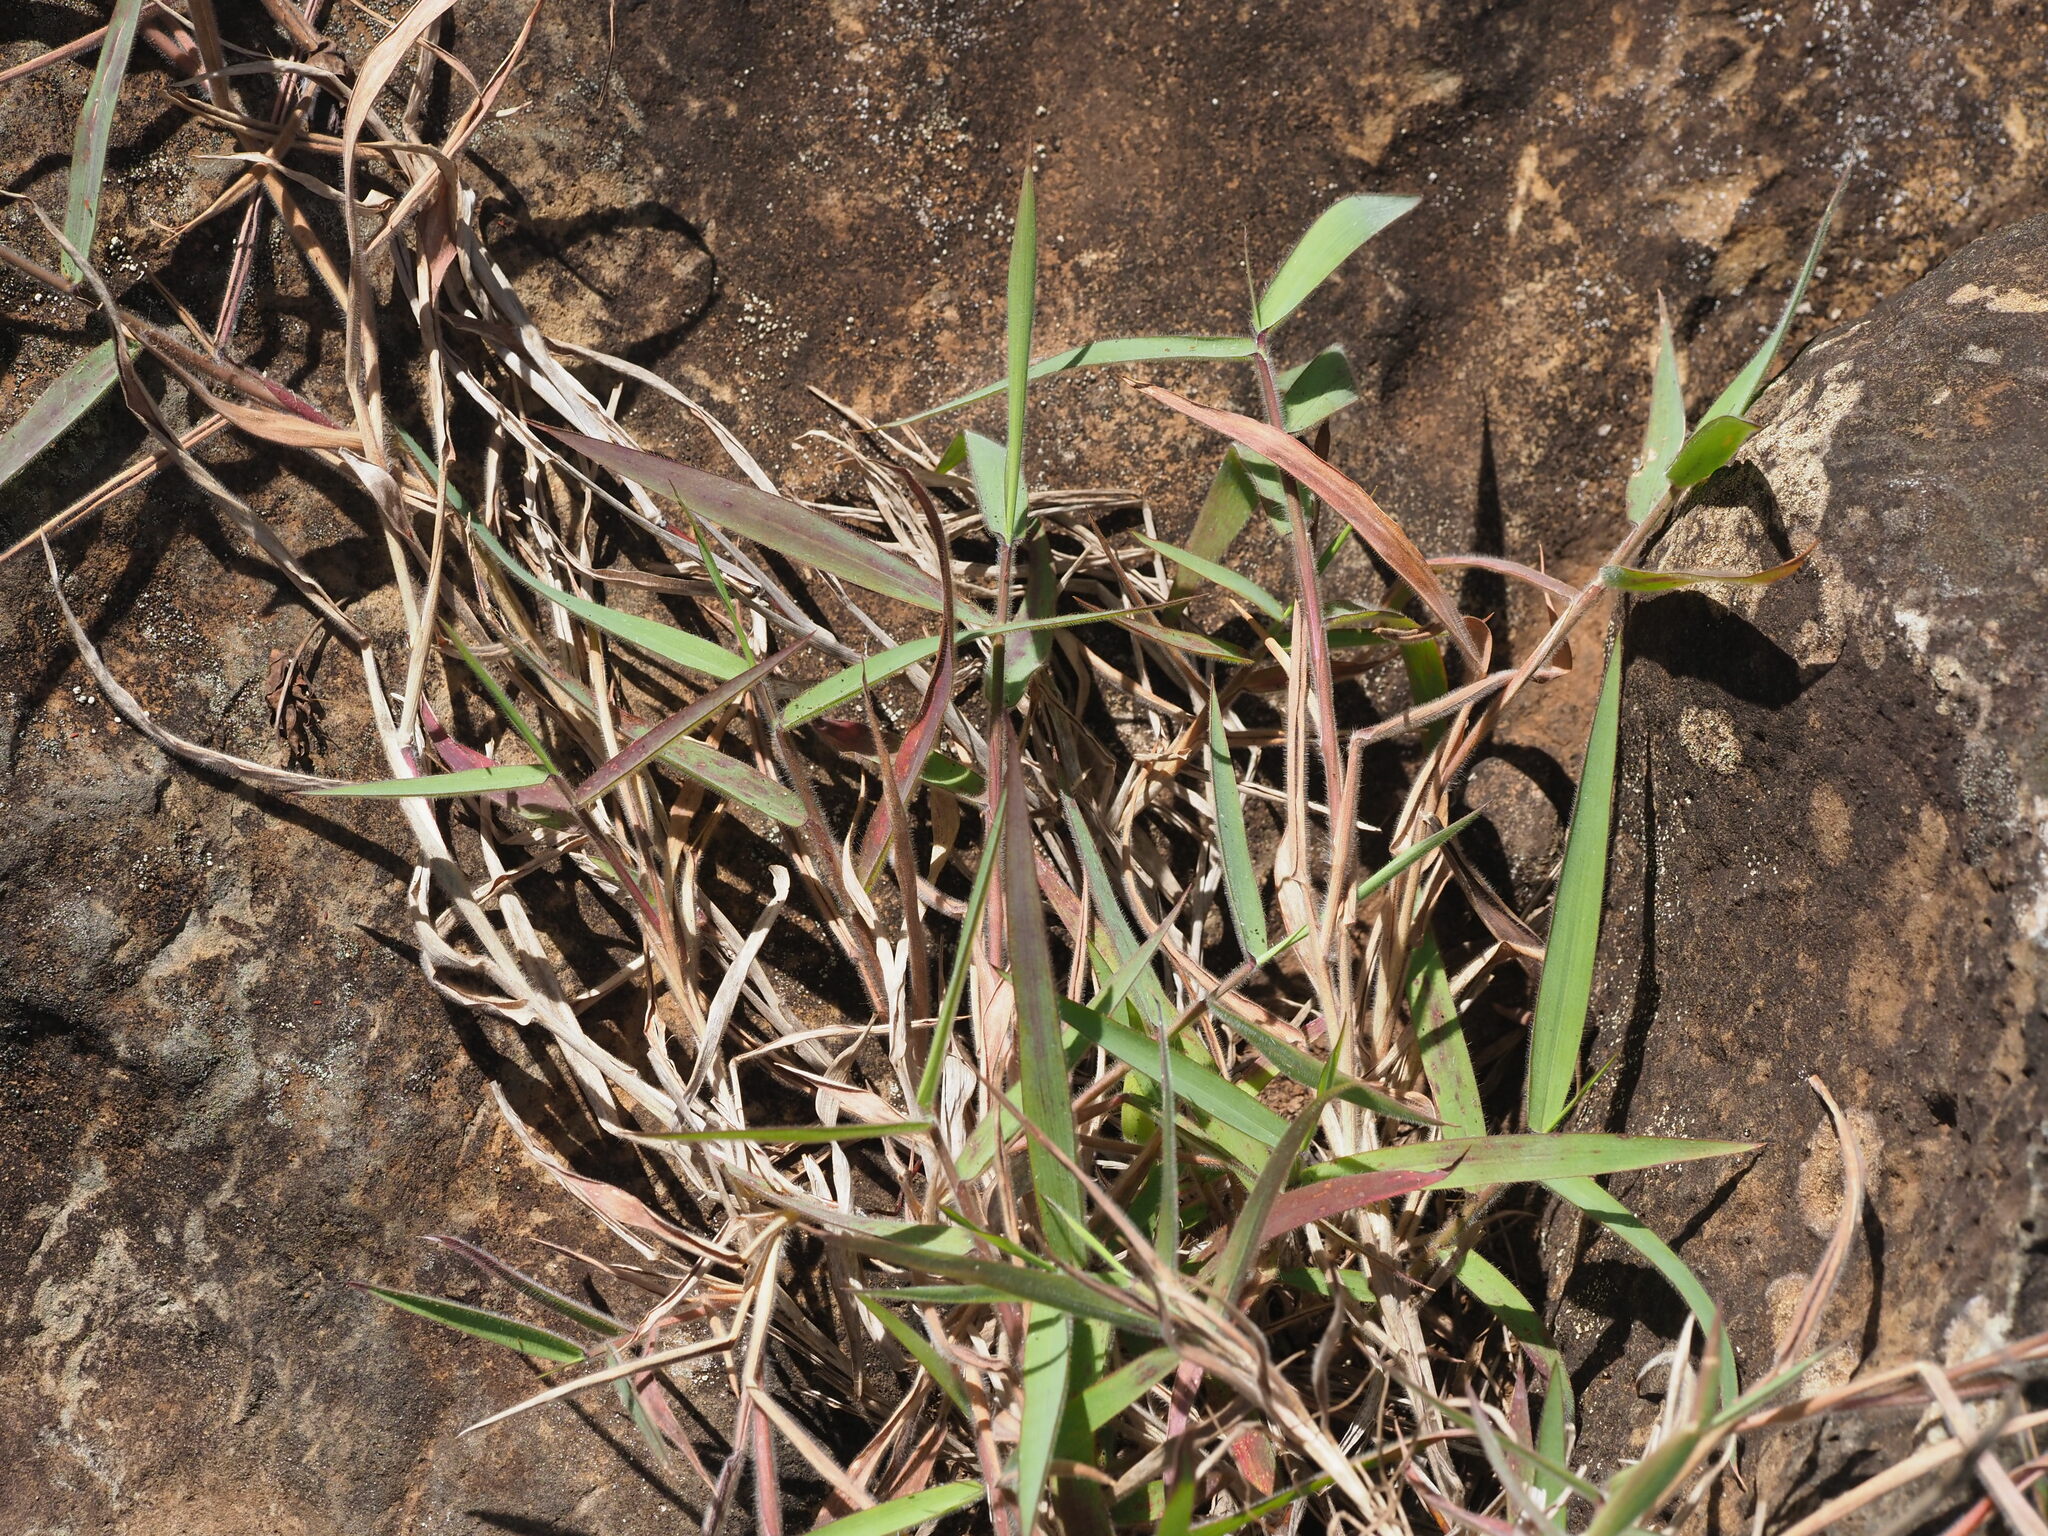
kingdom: Plantae
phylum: Tracheophyta
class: Liliopsida
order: Poales
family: Poaceae
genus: Melinis
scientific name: Melinis minutiflora
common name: Molassesgrass
